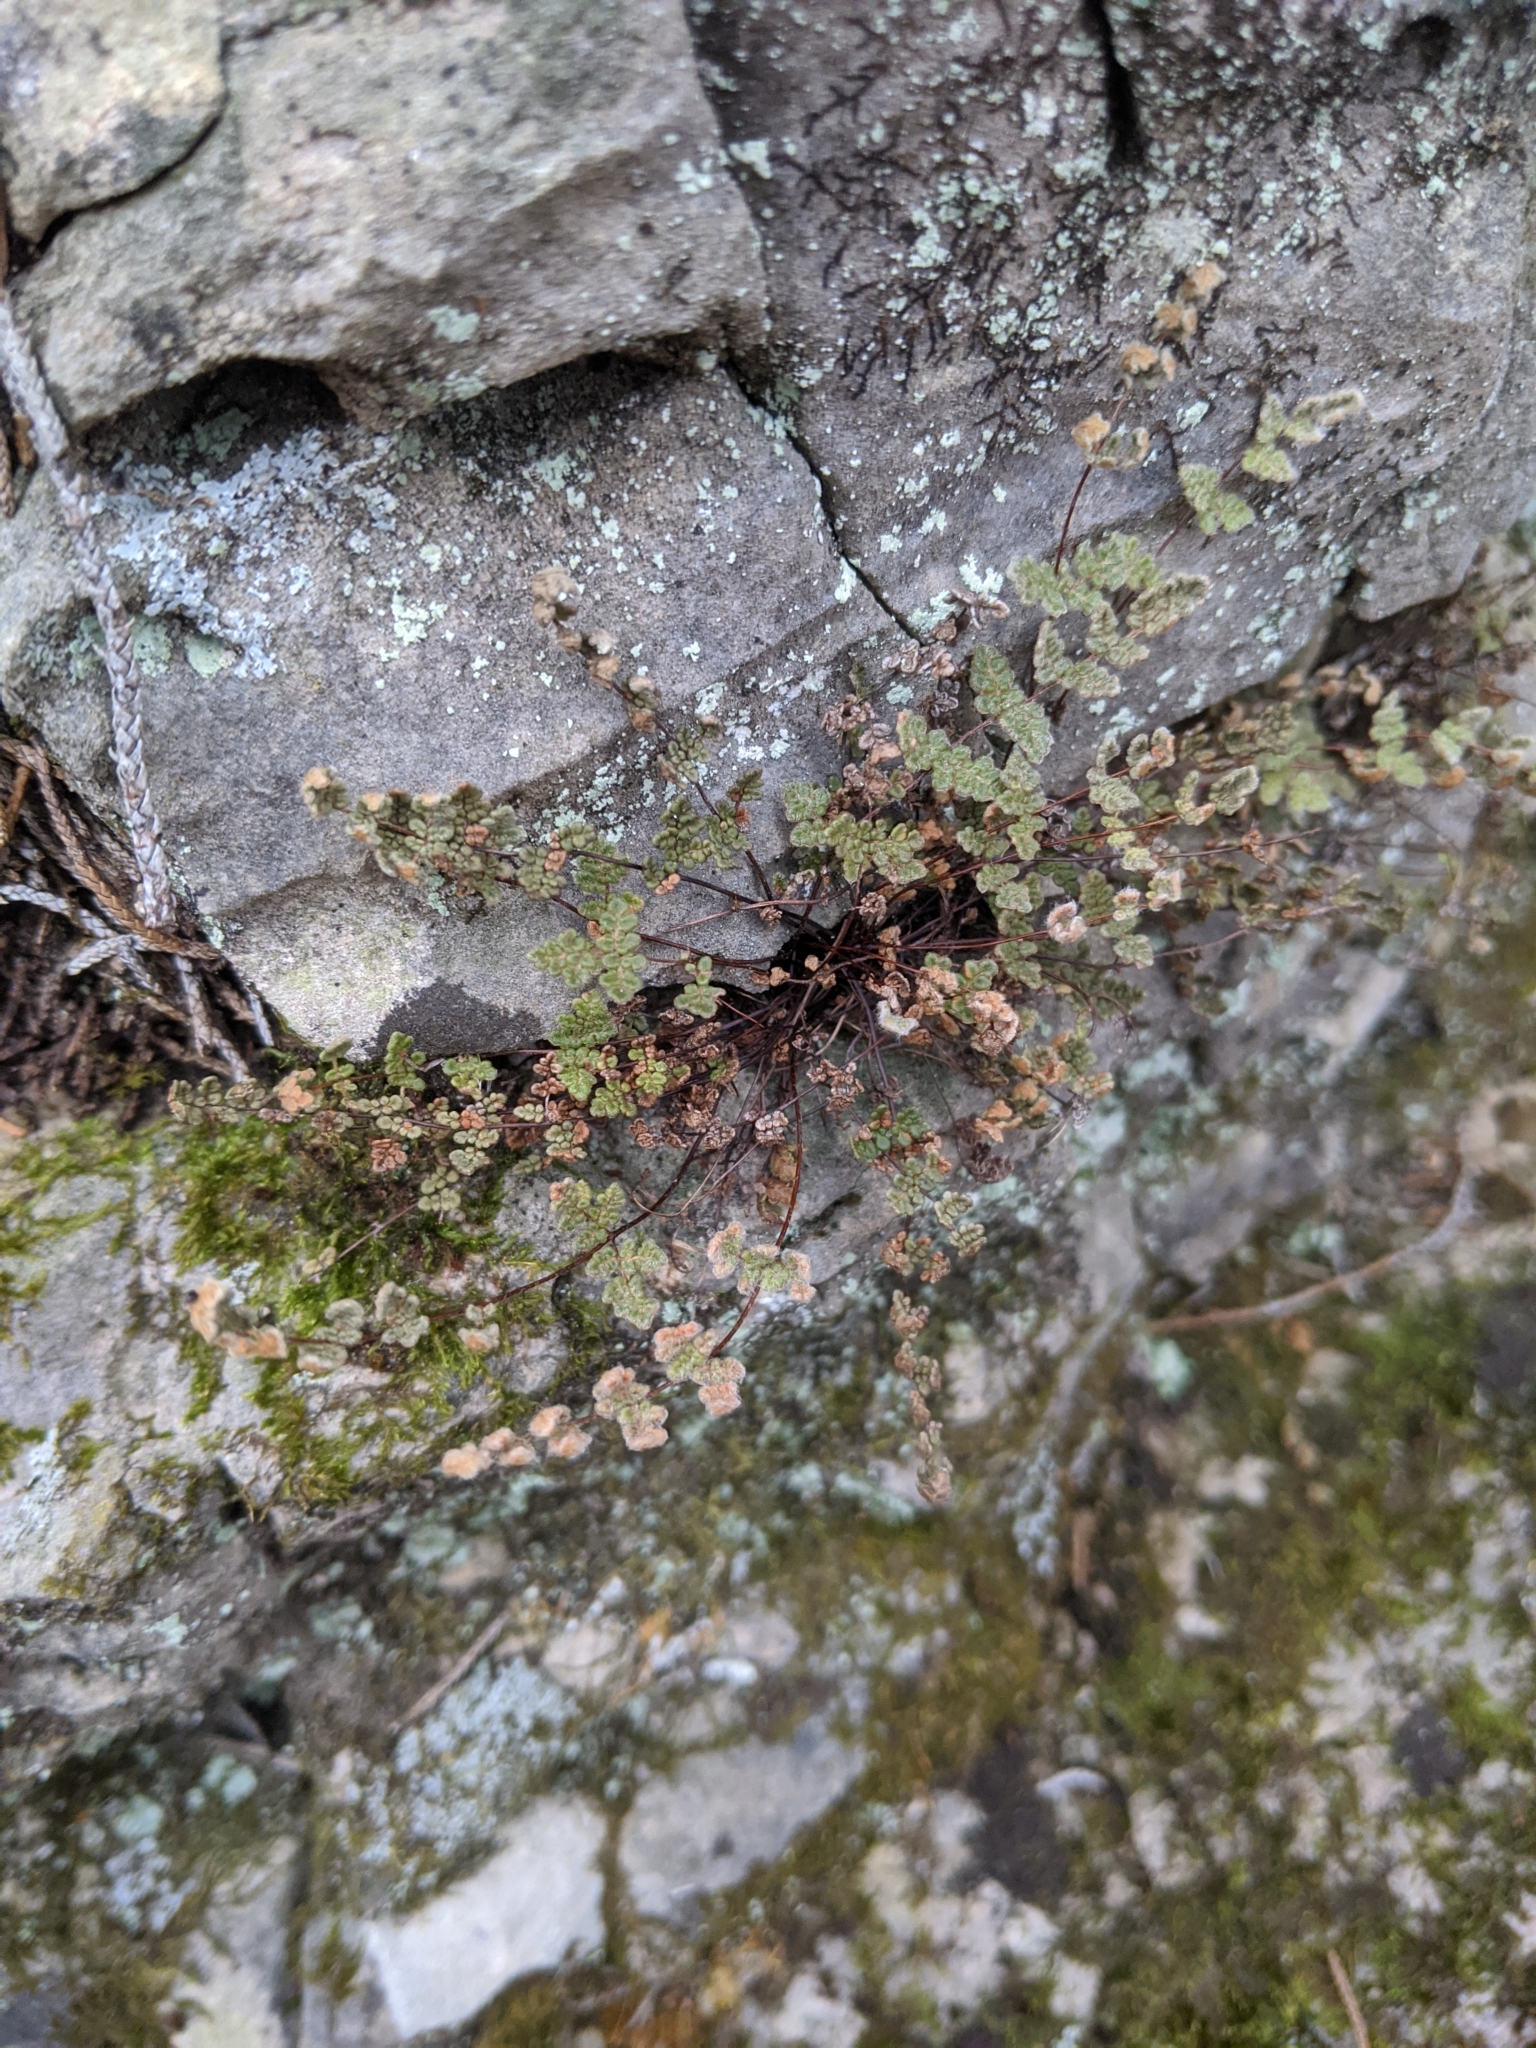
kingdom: Plantae
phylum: Tracheophyta
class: Polypodiopsida
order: Polypodiales
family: Pteridaceae
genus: Myriopteris
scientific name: Myriopteris gracilis
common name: Fee's lip fern
